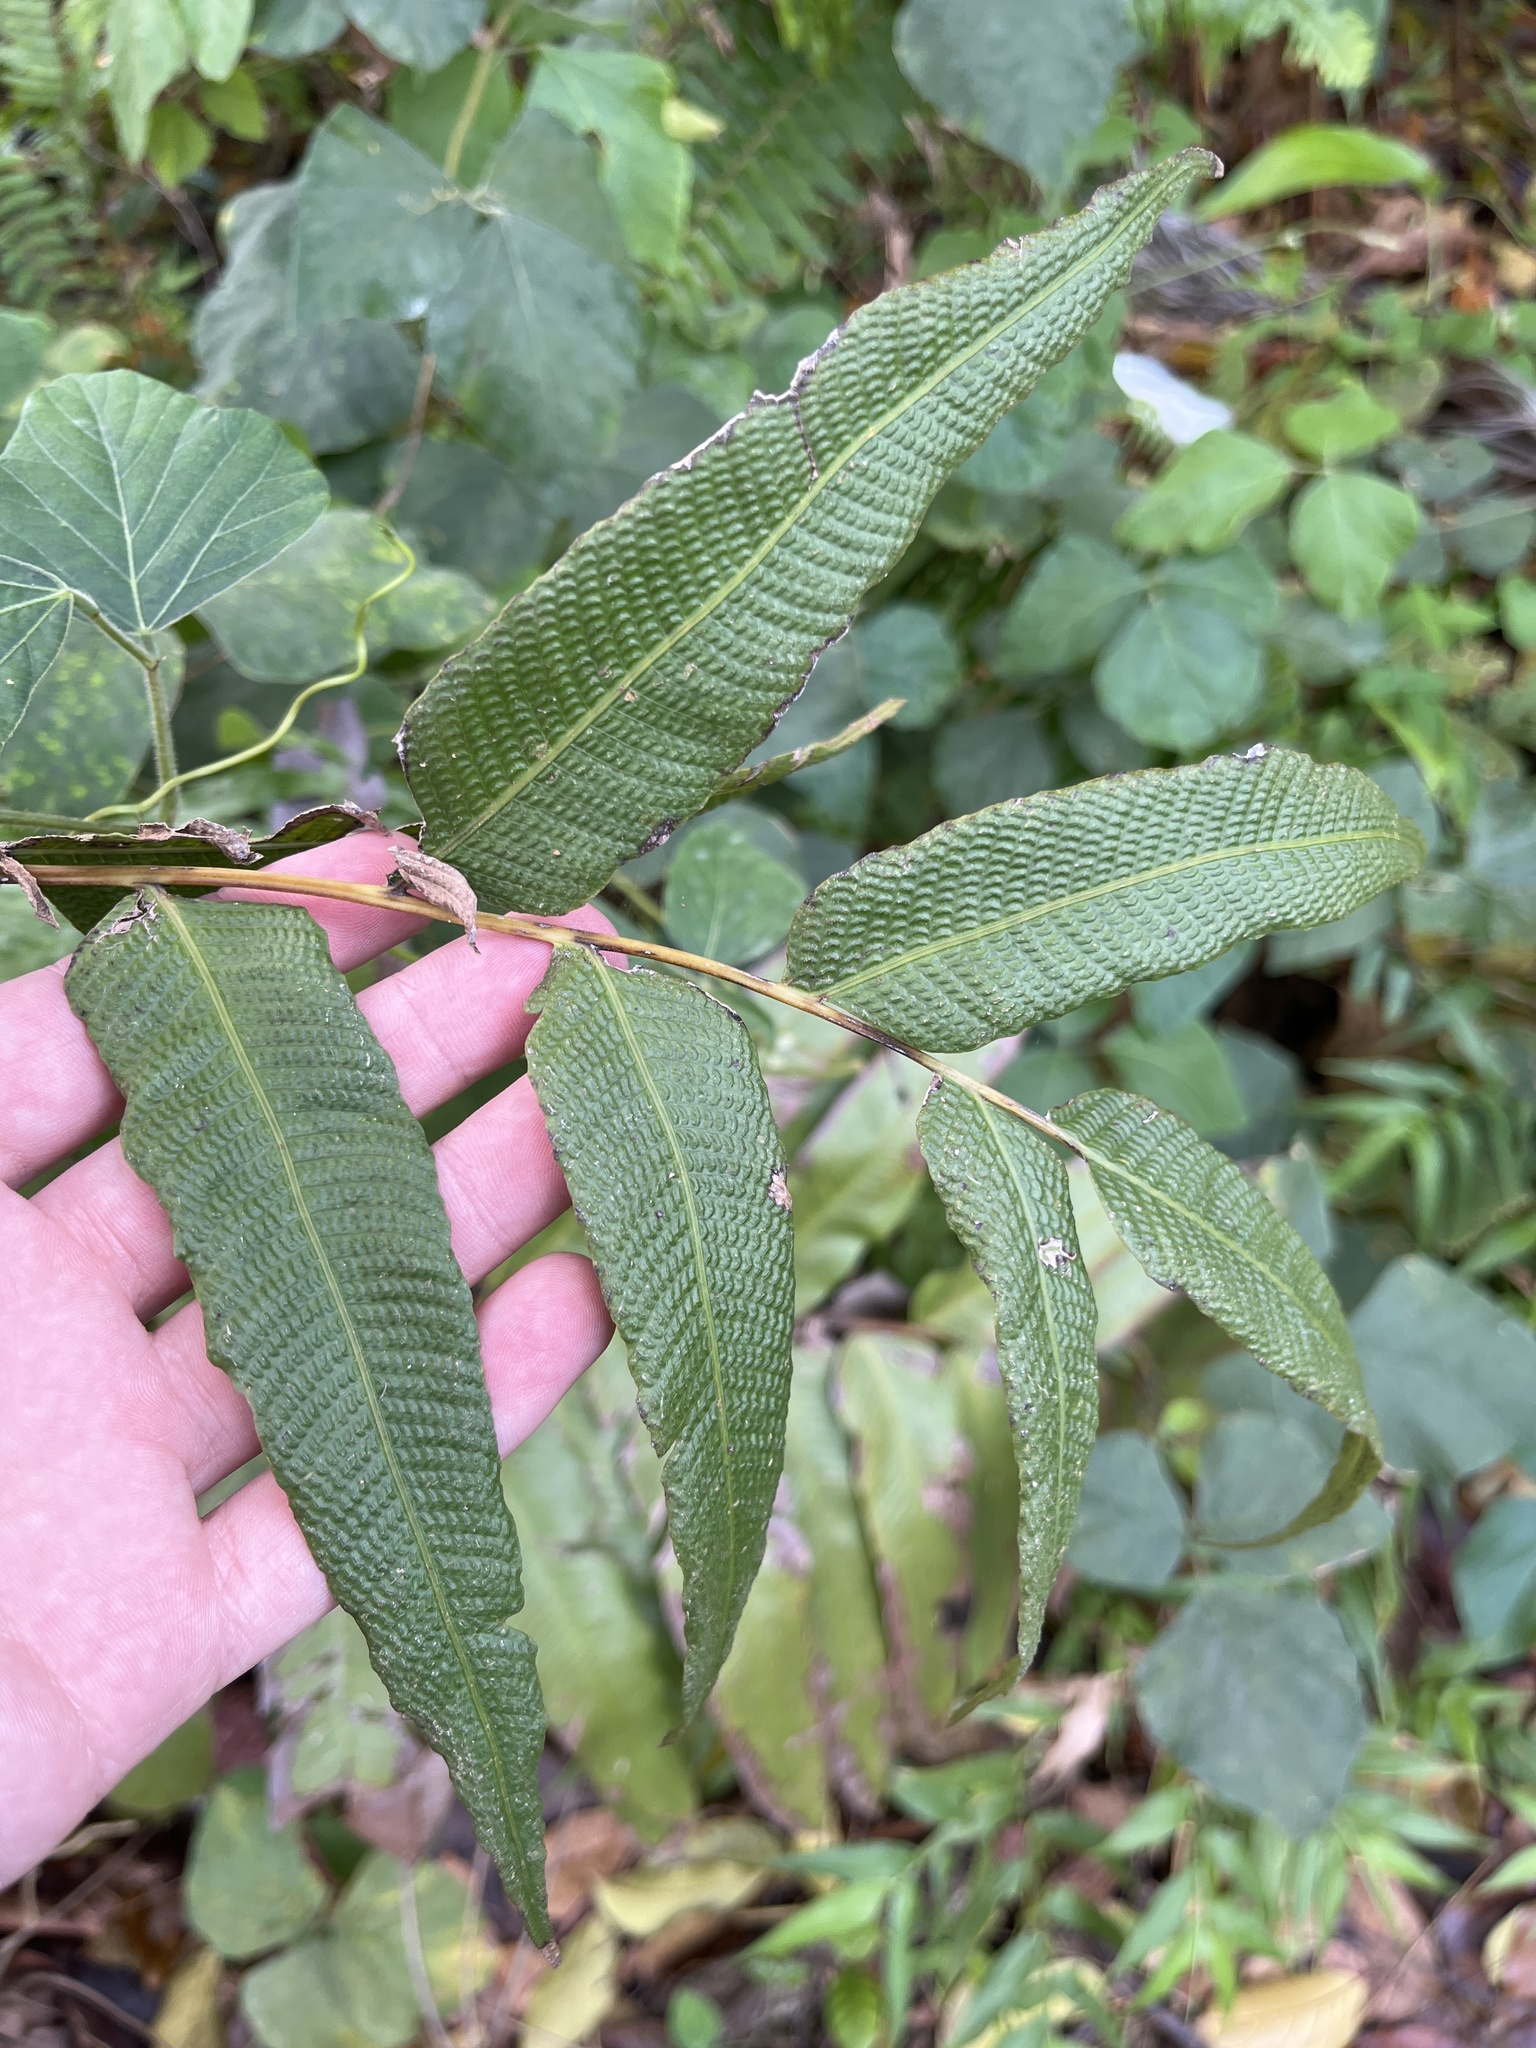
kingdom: Plantae
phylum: Tracheophyta
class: Polypodiopsida
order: Polypodiales
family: Thelypteridaceae
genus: Meniscium
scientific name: Meniscium reticulatum
